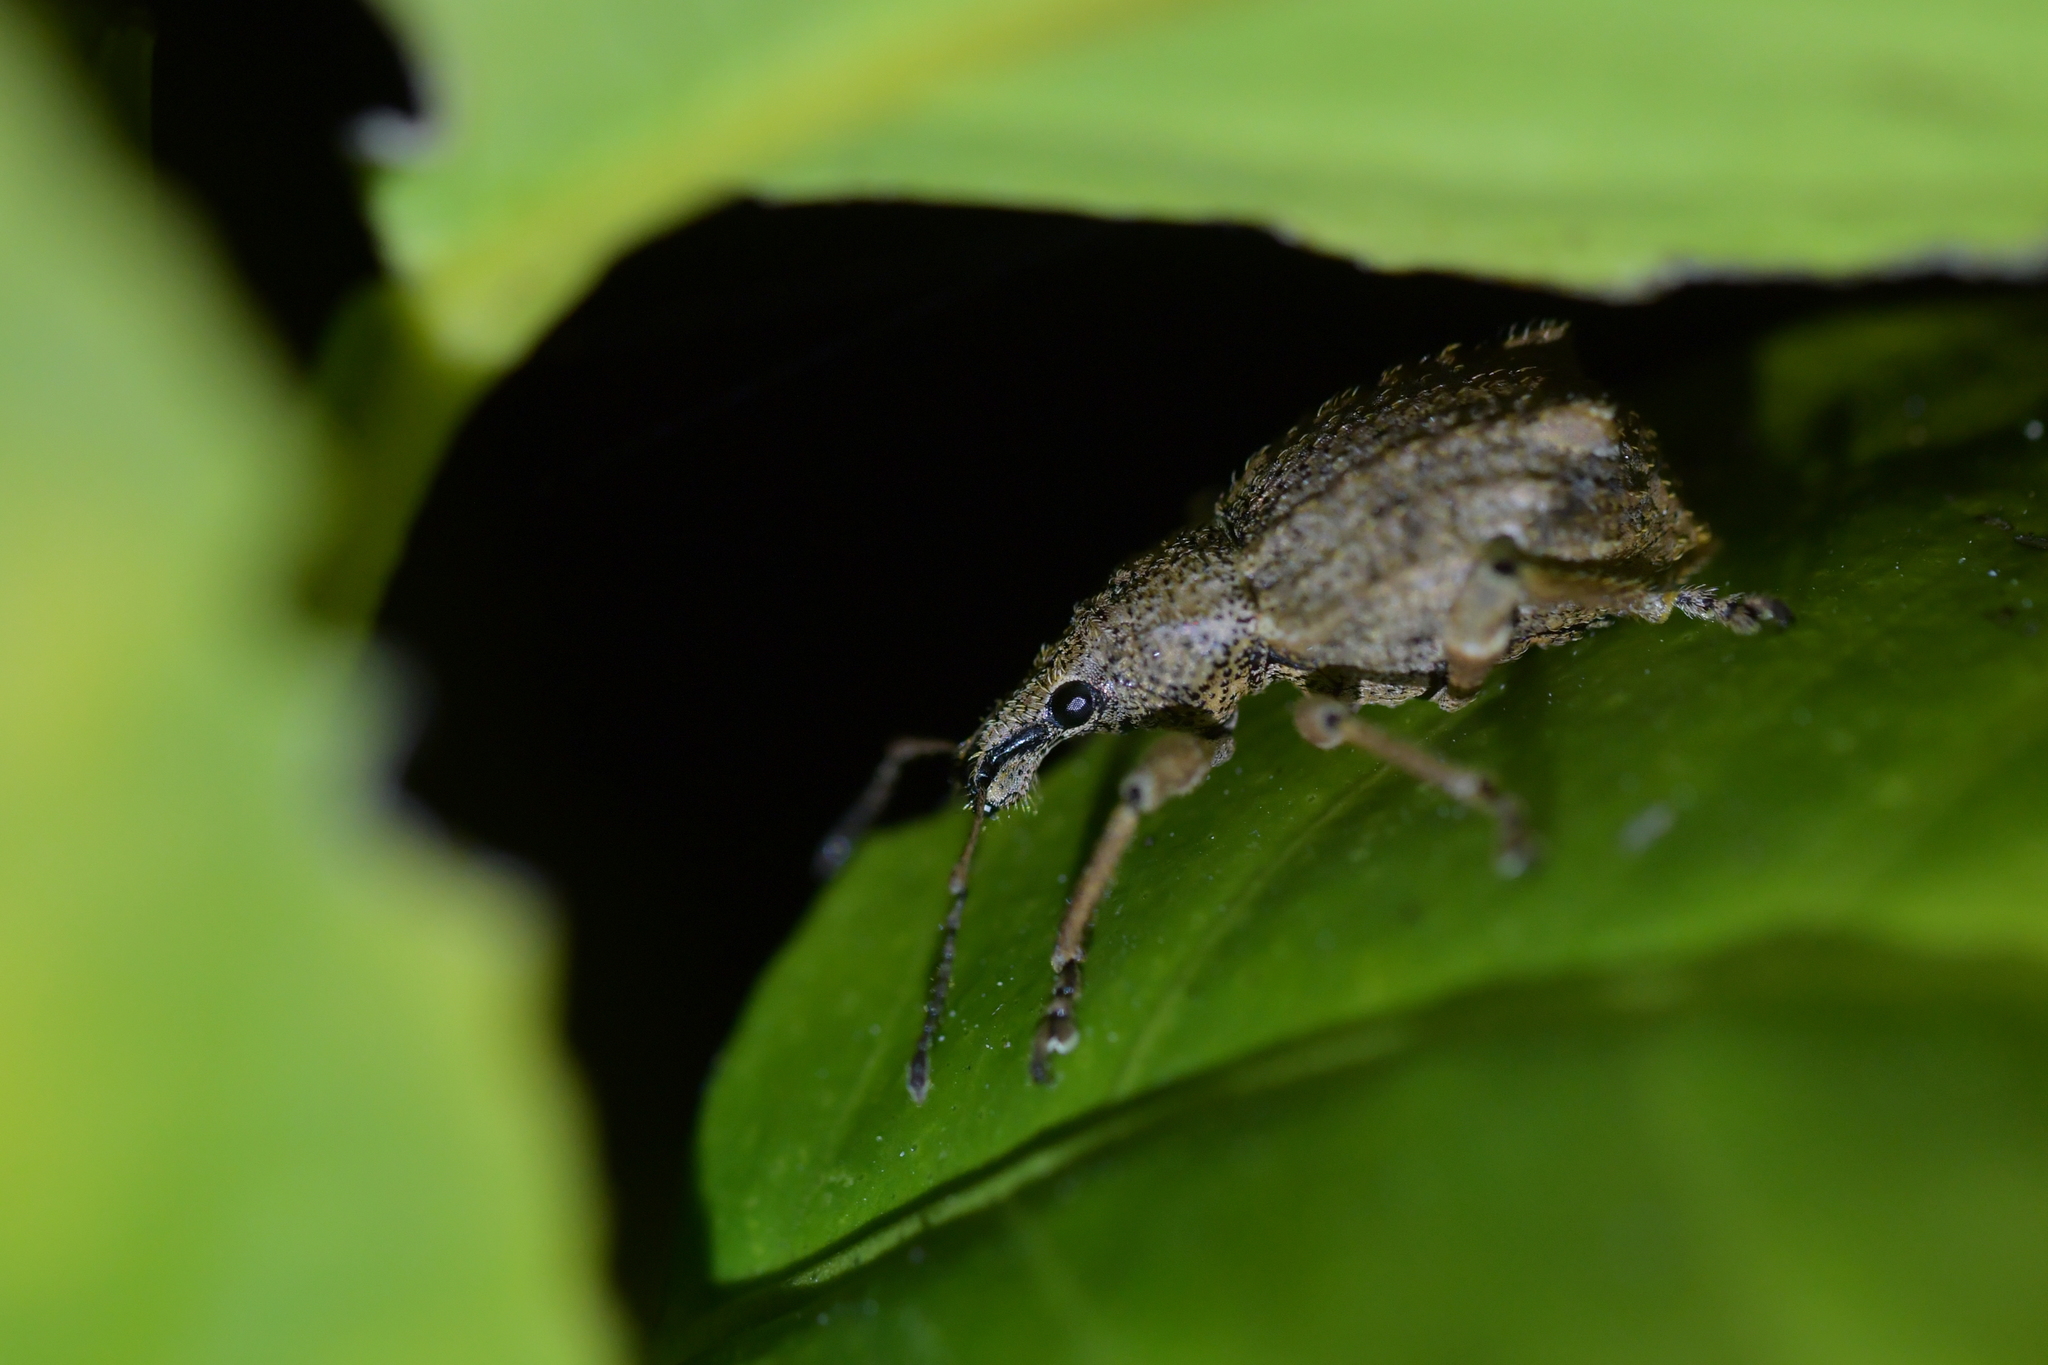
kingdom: Animalia
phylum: Arthropoda
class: Insecta
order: Coleoptera
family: Curculionidae
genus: Catoptes
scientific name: Catoptes binodis
